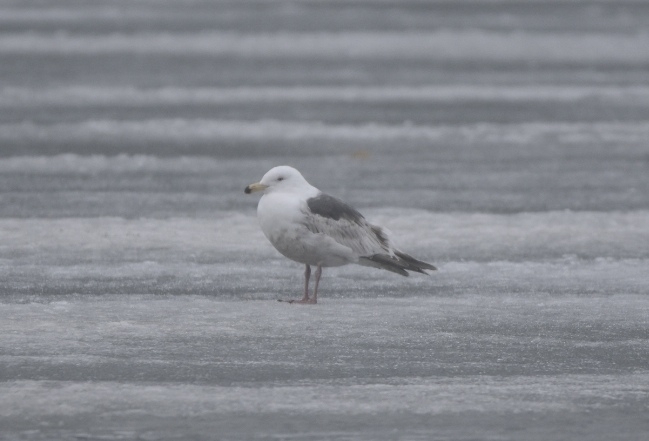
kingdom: Animalia
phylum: Chordata
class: Aves
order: Charadriiformes
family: Laridae
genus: Larus
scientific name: Larus schistisagus
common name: Slaty-backed gull
